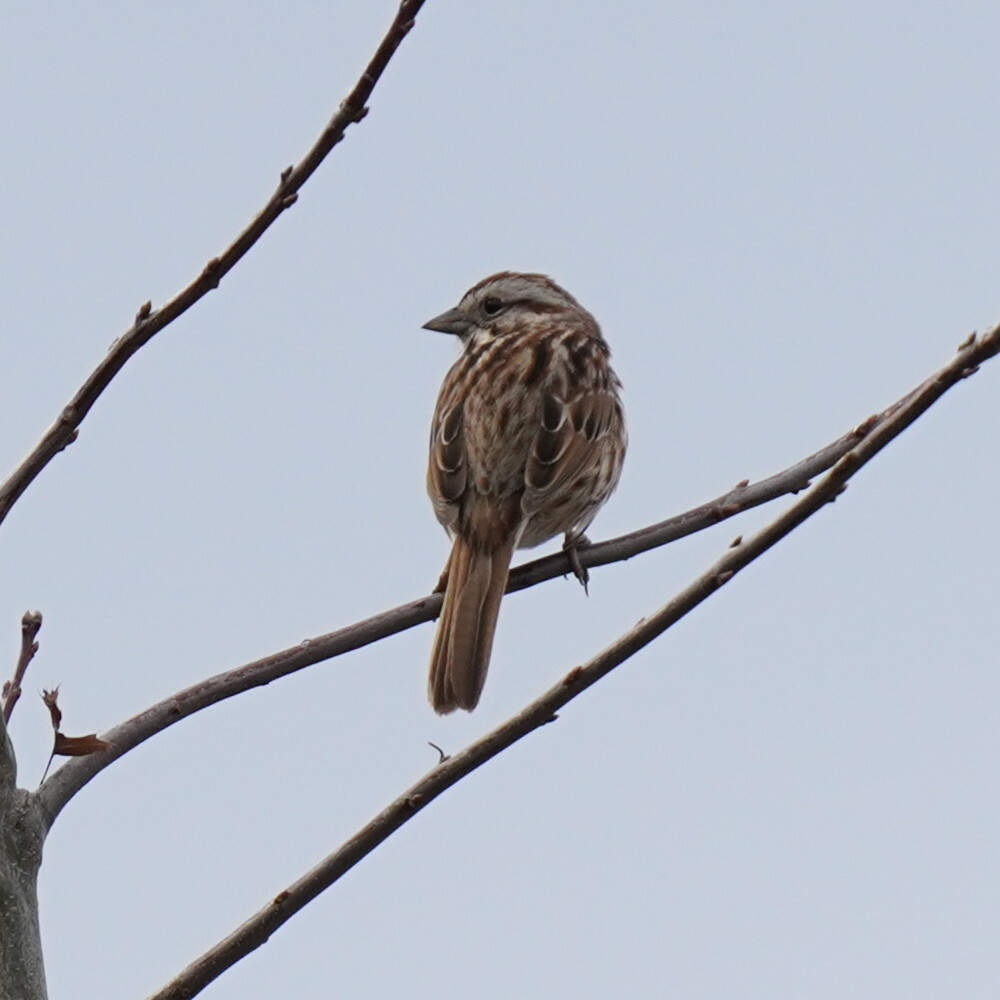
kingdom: Animalia
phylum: Chordata
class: Aves
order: Passeriformes
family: Passerellidae
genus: Melospiza
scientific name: Melospiza melodia
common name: Song sparrow
